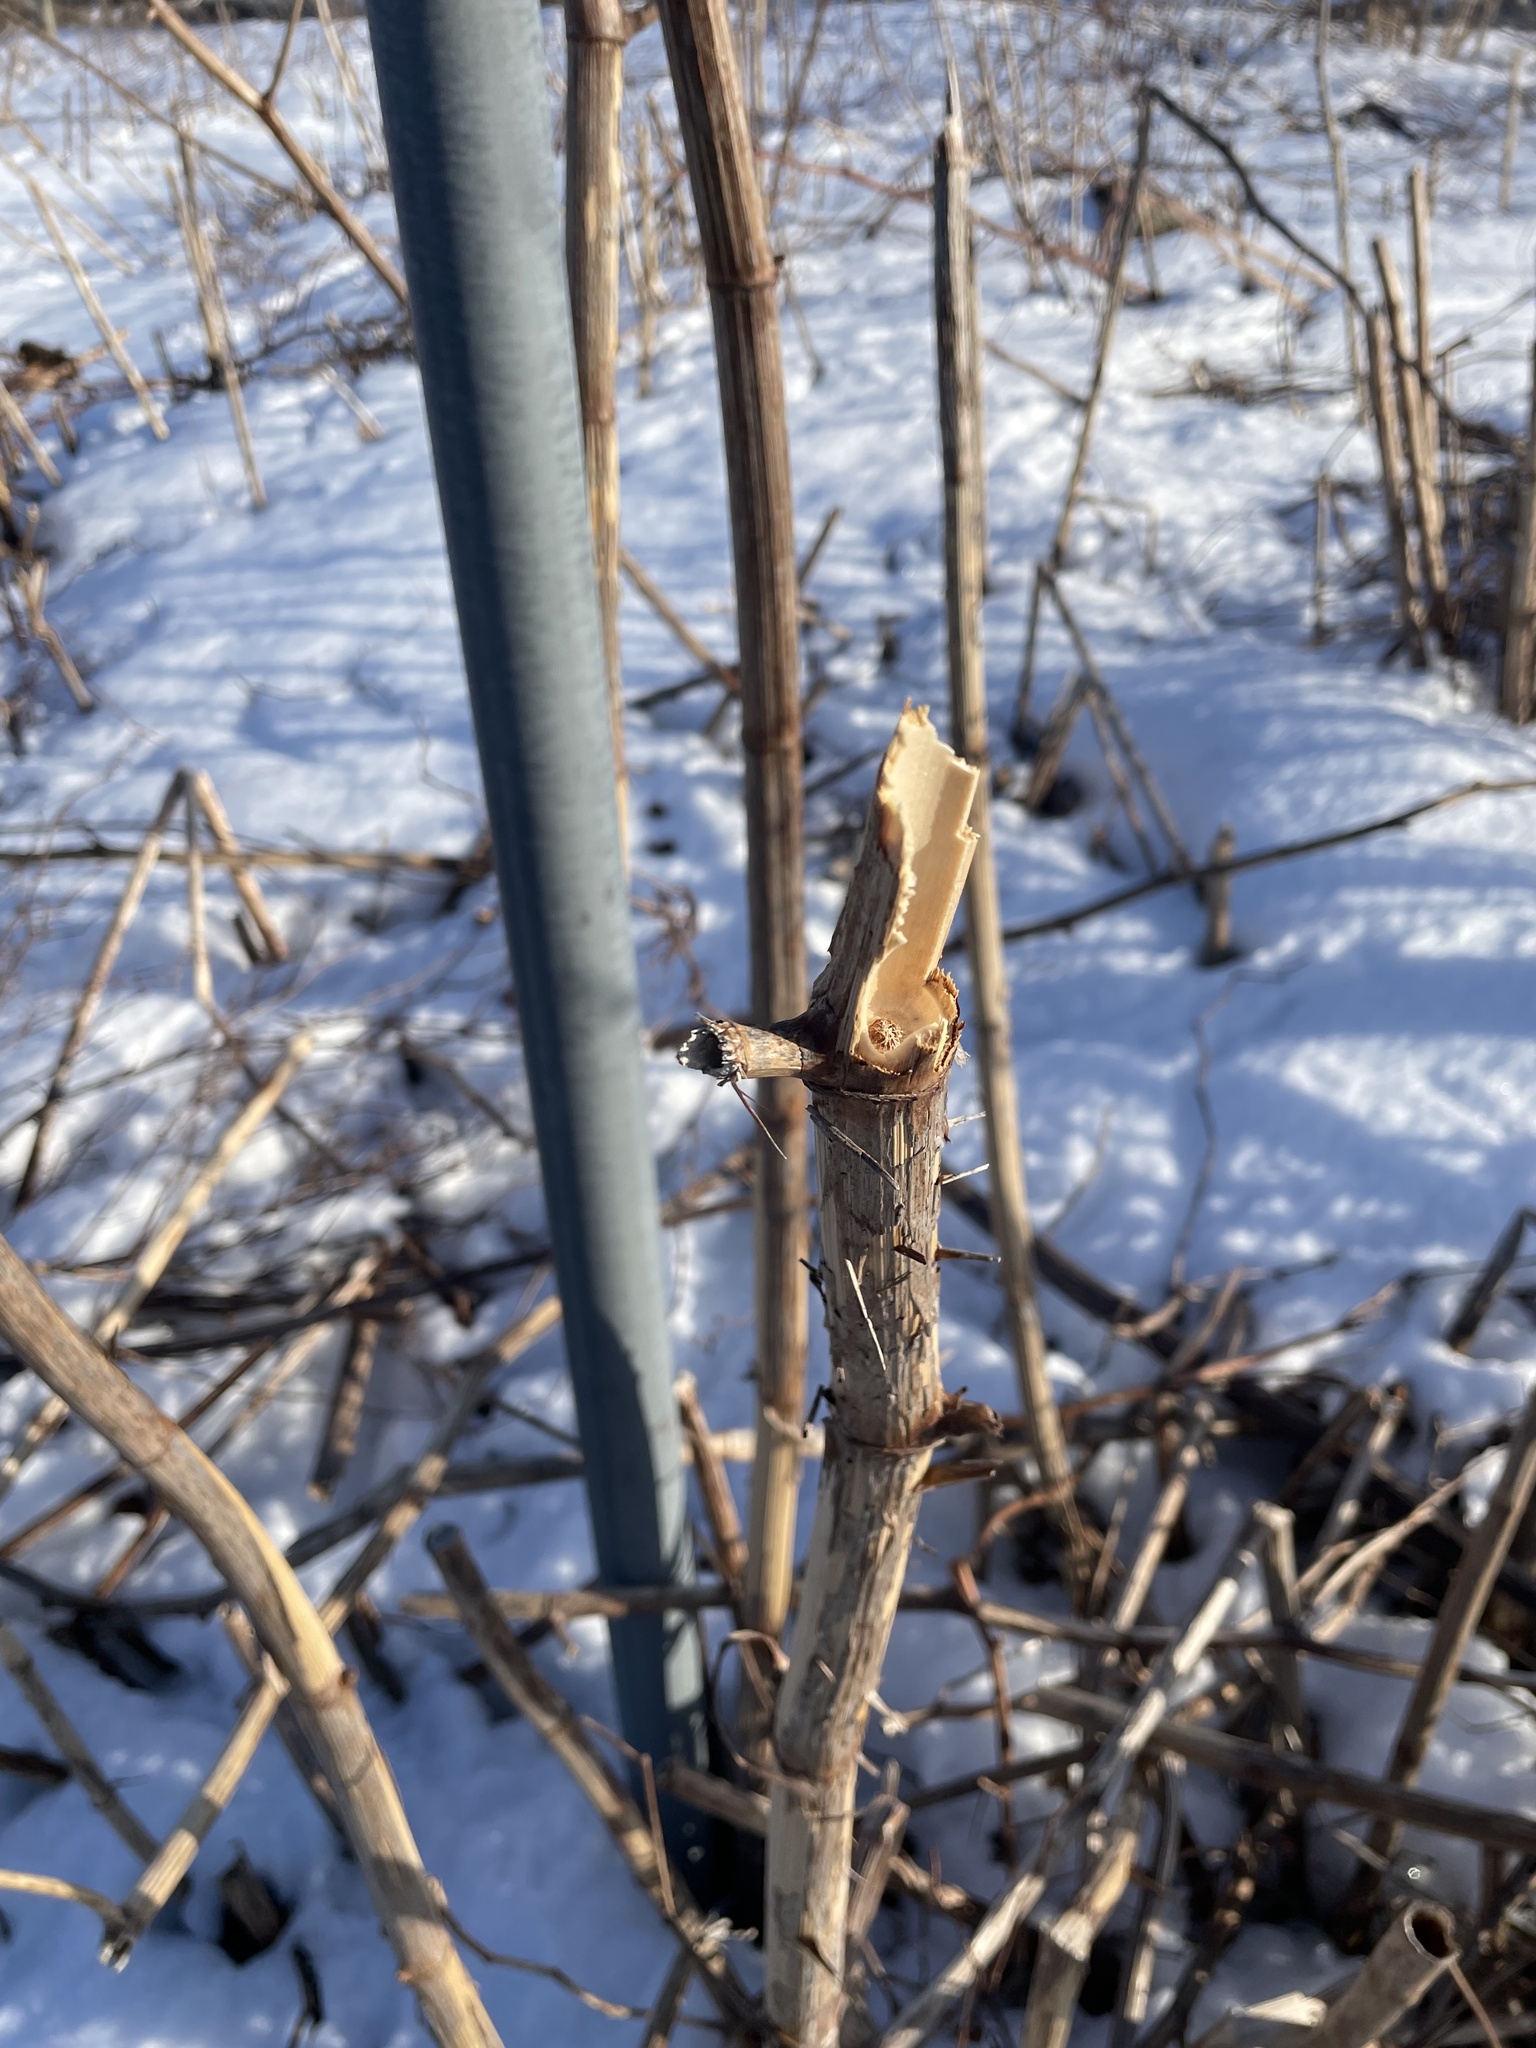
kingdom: Plantae
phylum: Tracheophyta
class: Magnoliopsida
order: Caryophyllales
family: Polygonaceae
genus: Reynoutria
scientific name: Reynoutria japonica
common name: Japanese knotweed
